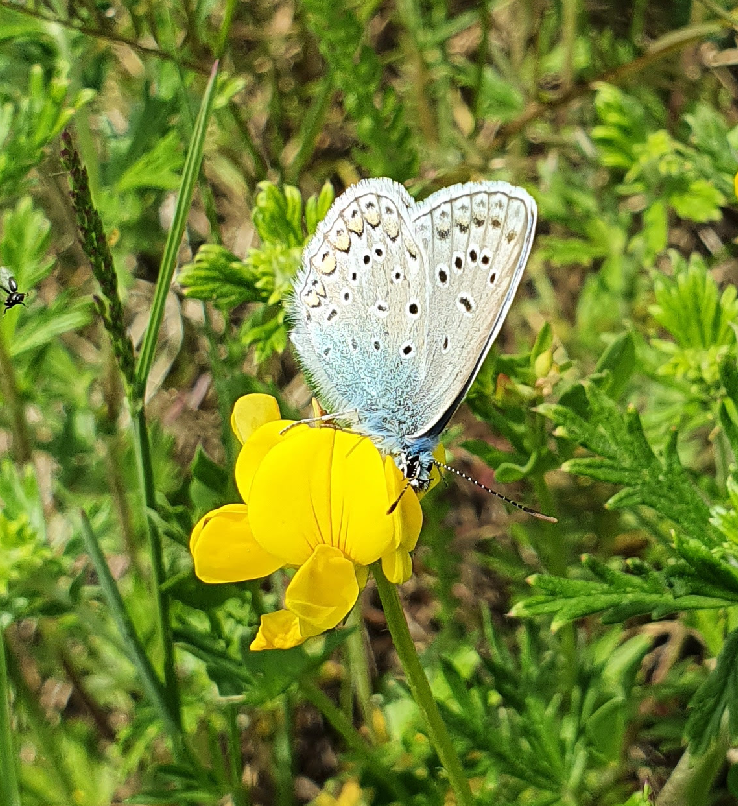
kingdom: Animalia
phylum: Arthropoda
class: Insecta
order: Lepidoptera
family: Lycaenidae
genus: Polyommatus
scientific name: Polyommatus icarus
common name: Common blue
